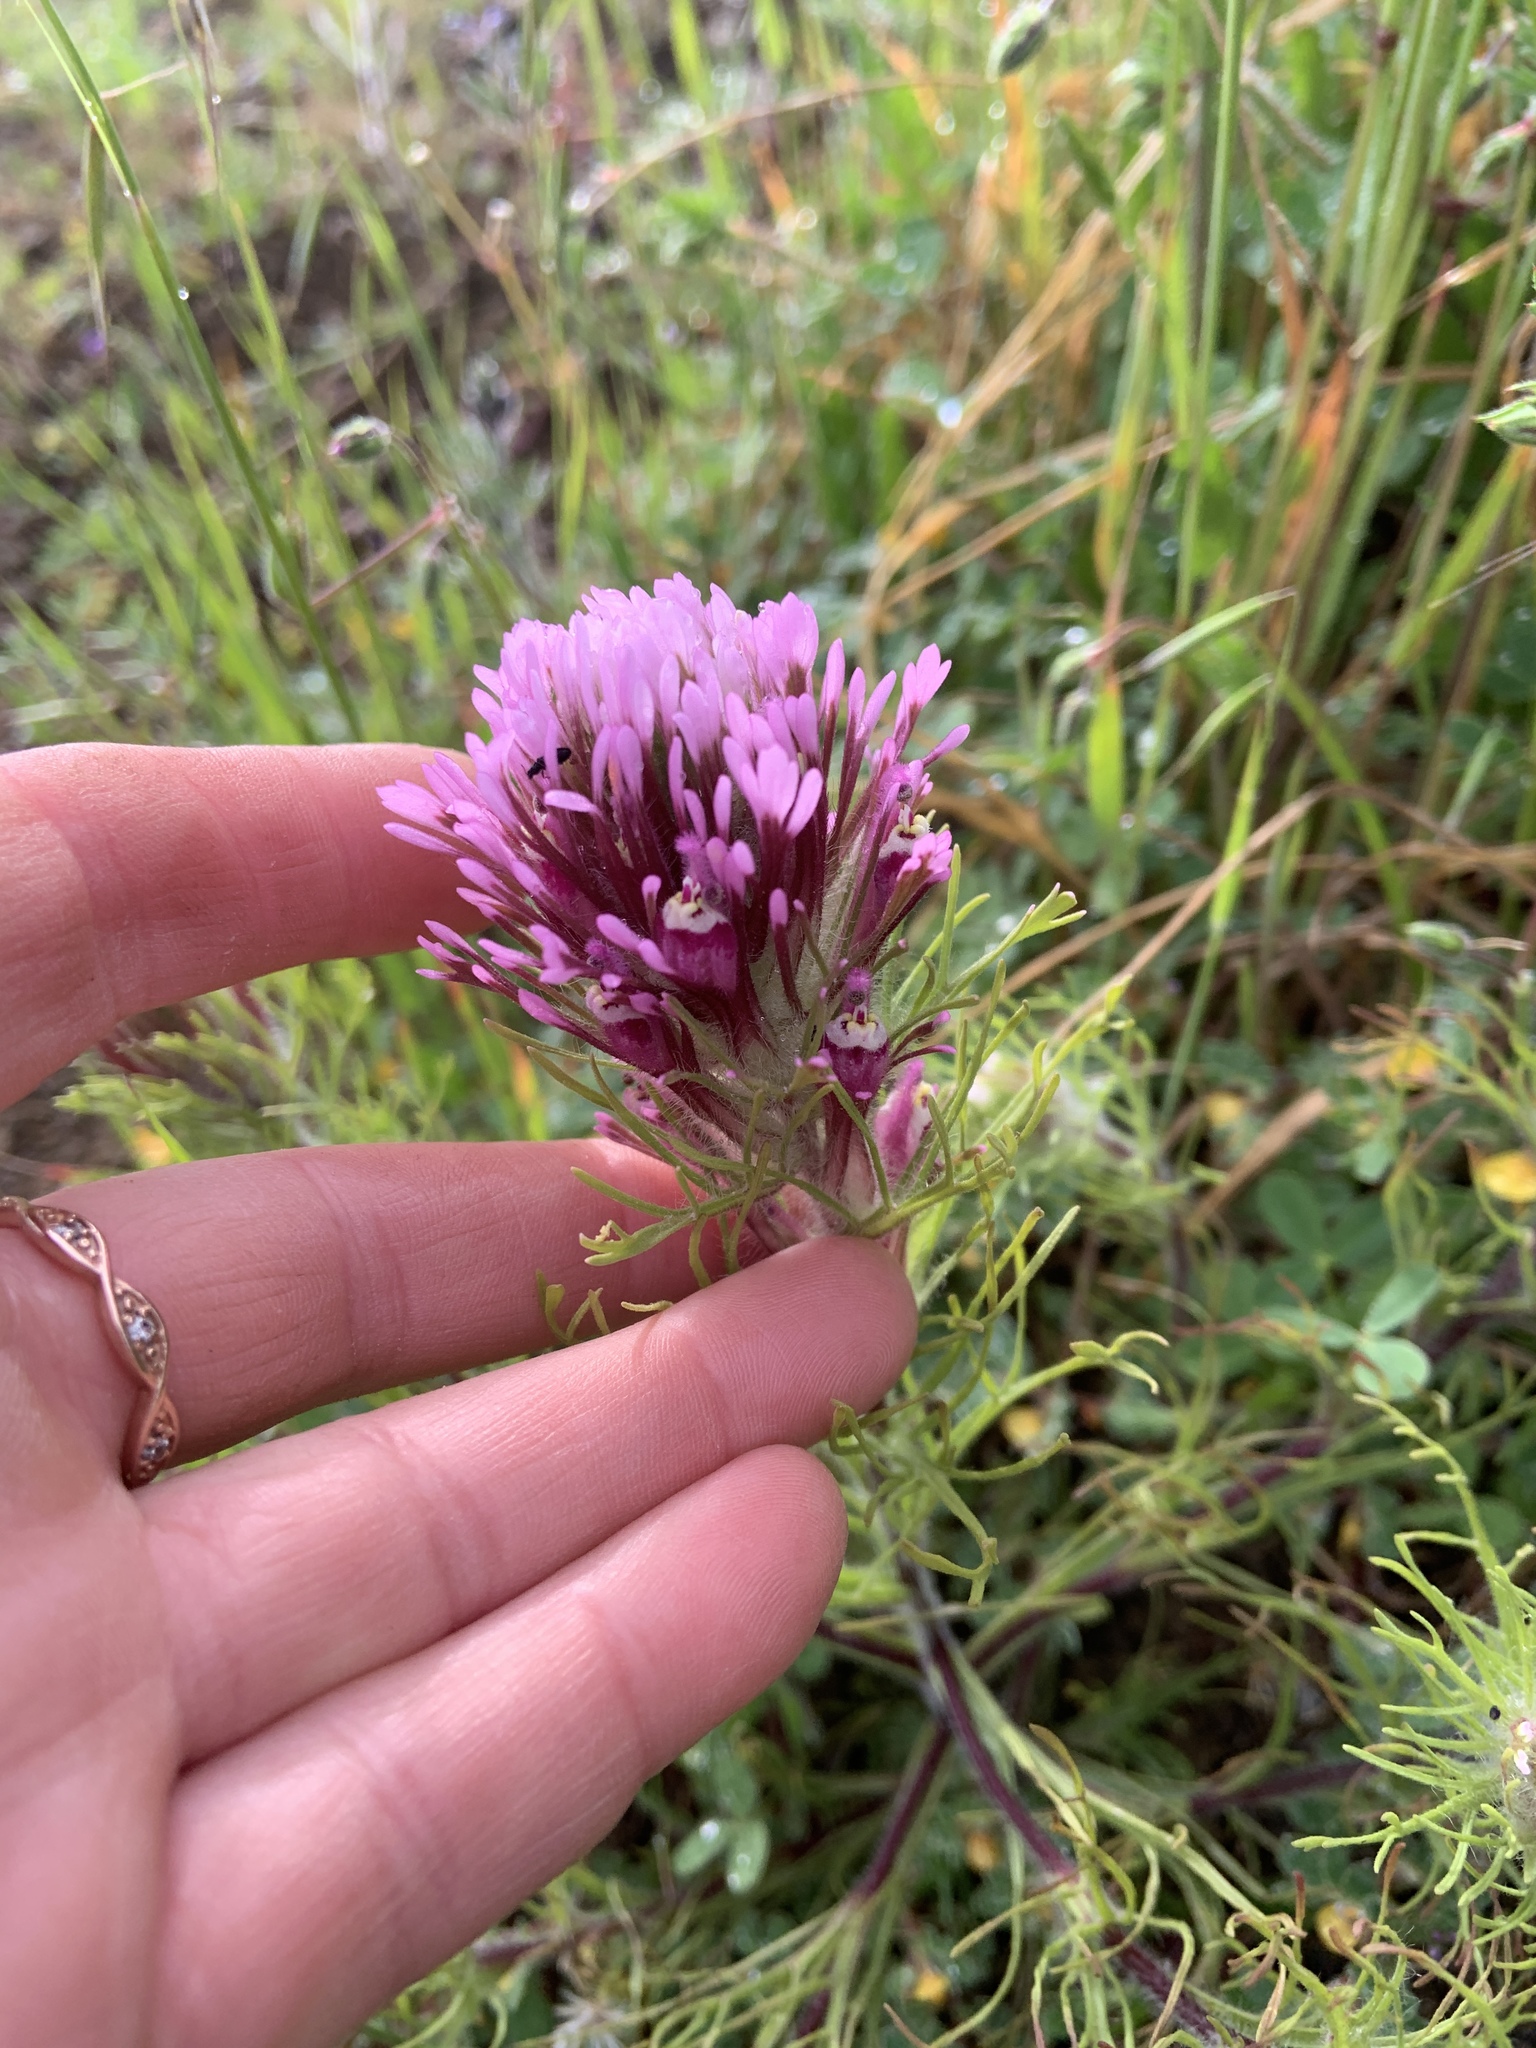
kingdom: Plantae
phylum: Tracheophyta
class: Magnoliopsida
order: Lamiales
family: Orobanchaceae
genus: Castilleja
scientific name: Castilleja exserta
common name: Purple owl-clover
